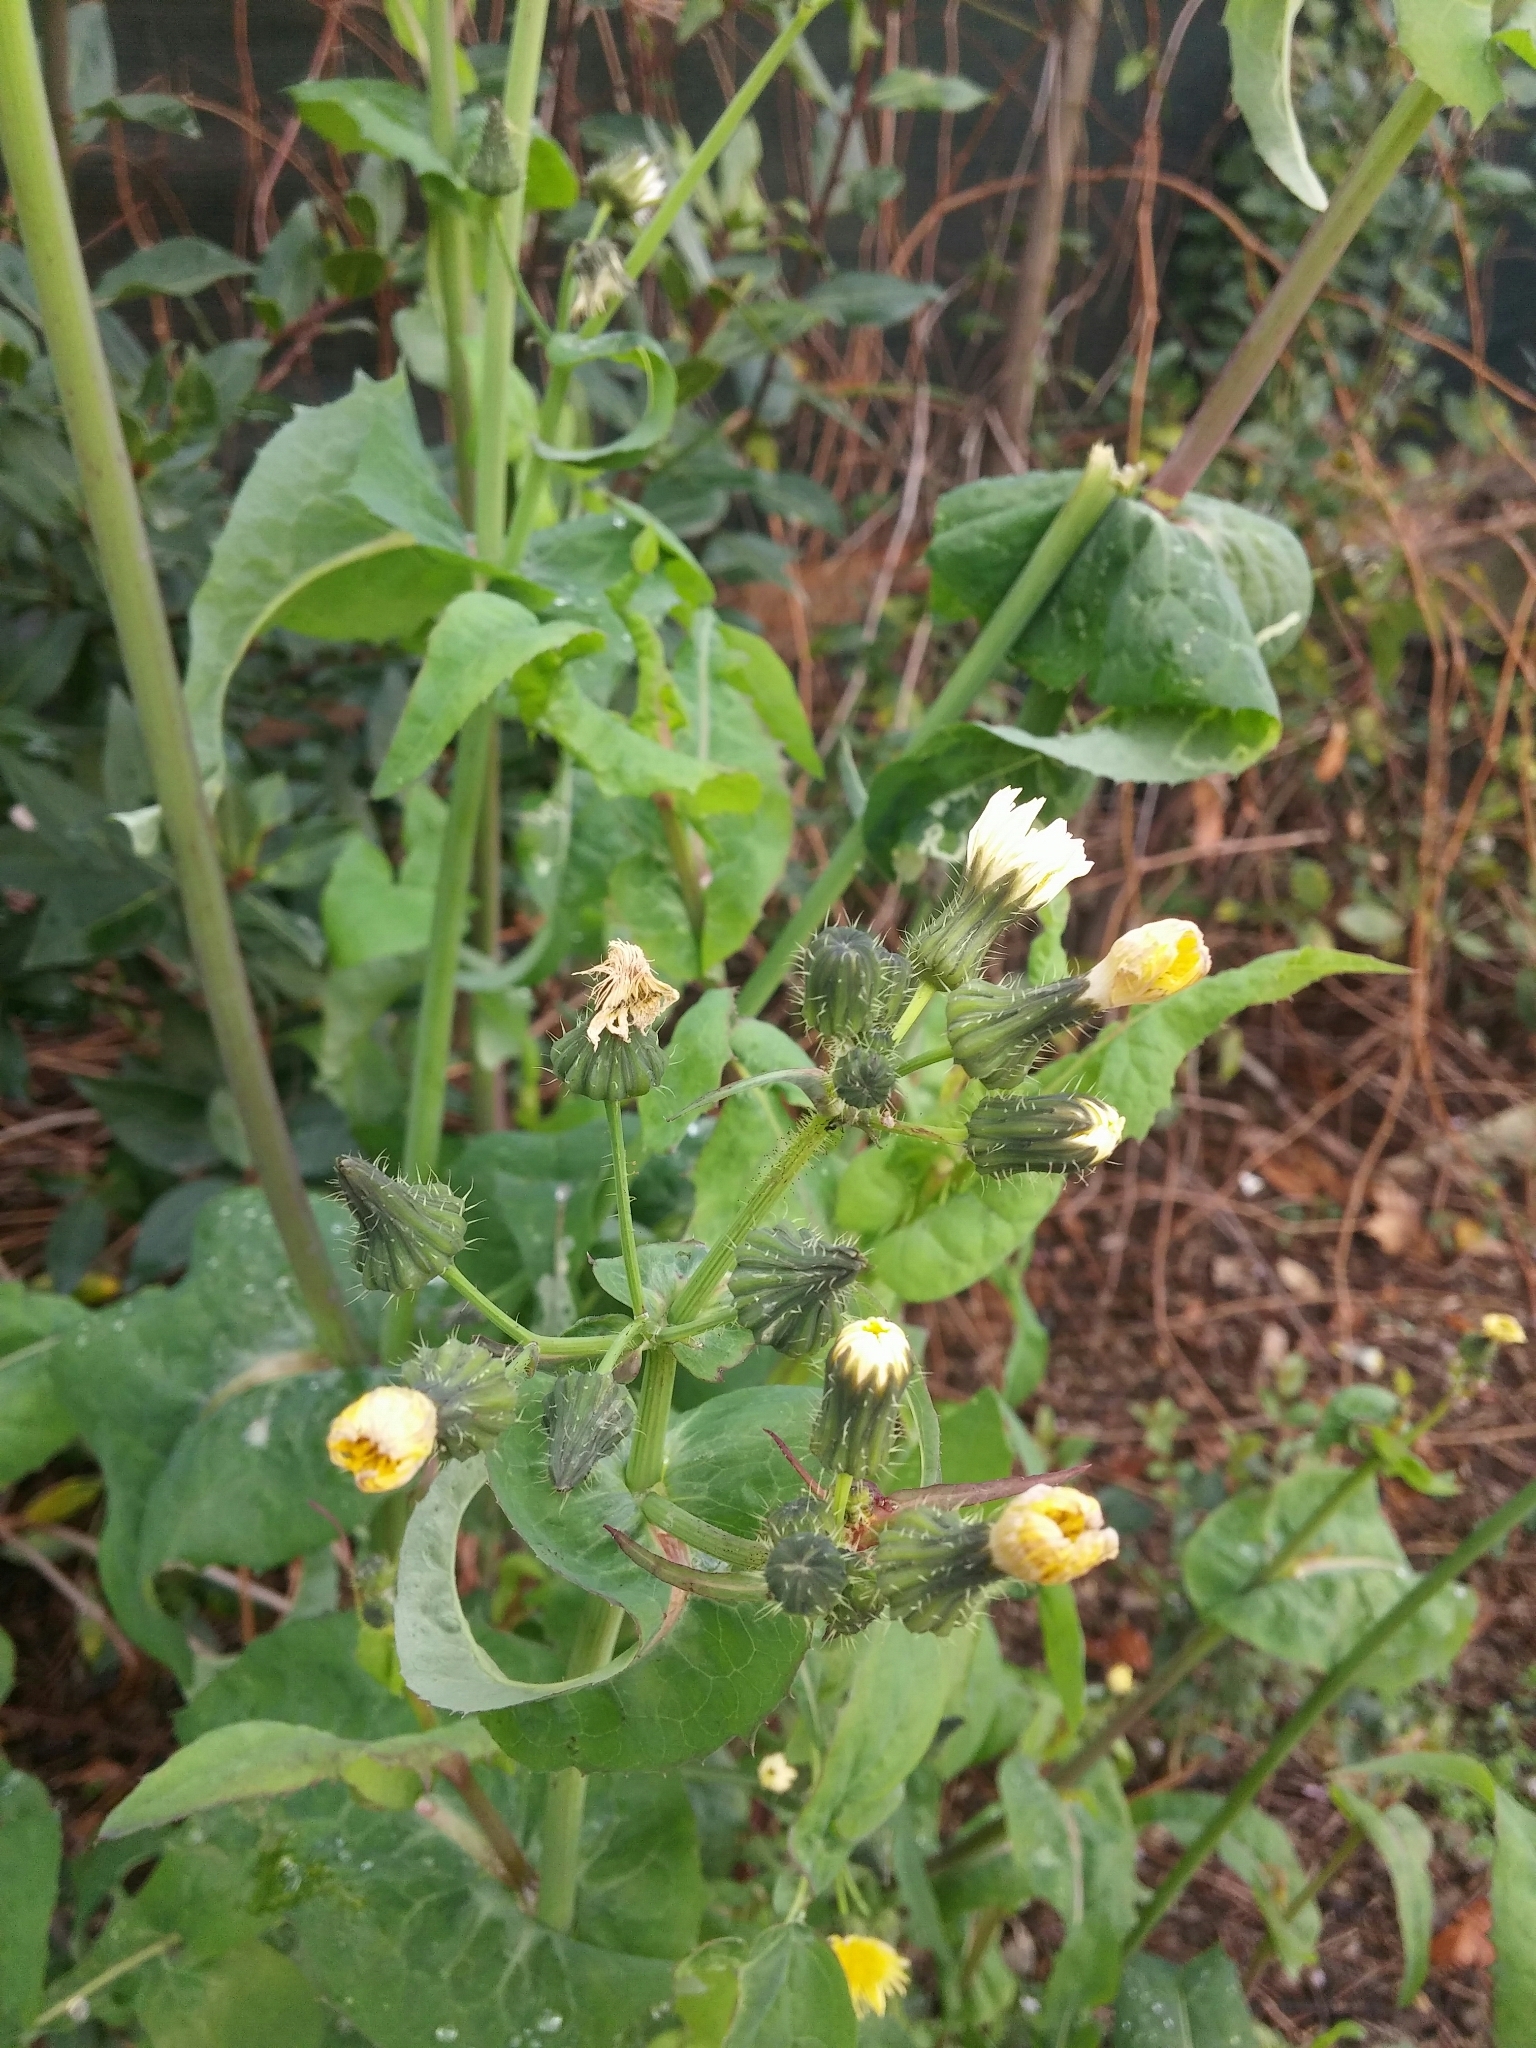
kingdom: Plantae
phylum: Tracheophyta
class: Magnoliopsida
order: Asterales
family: Asteraceae
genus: Sonchus
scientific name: Sonchus oleraceus
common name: Common sowthistle
